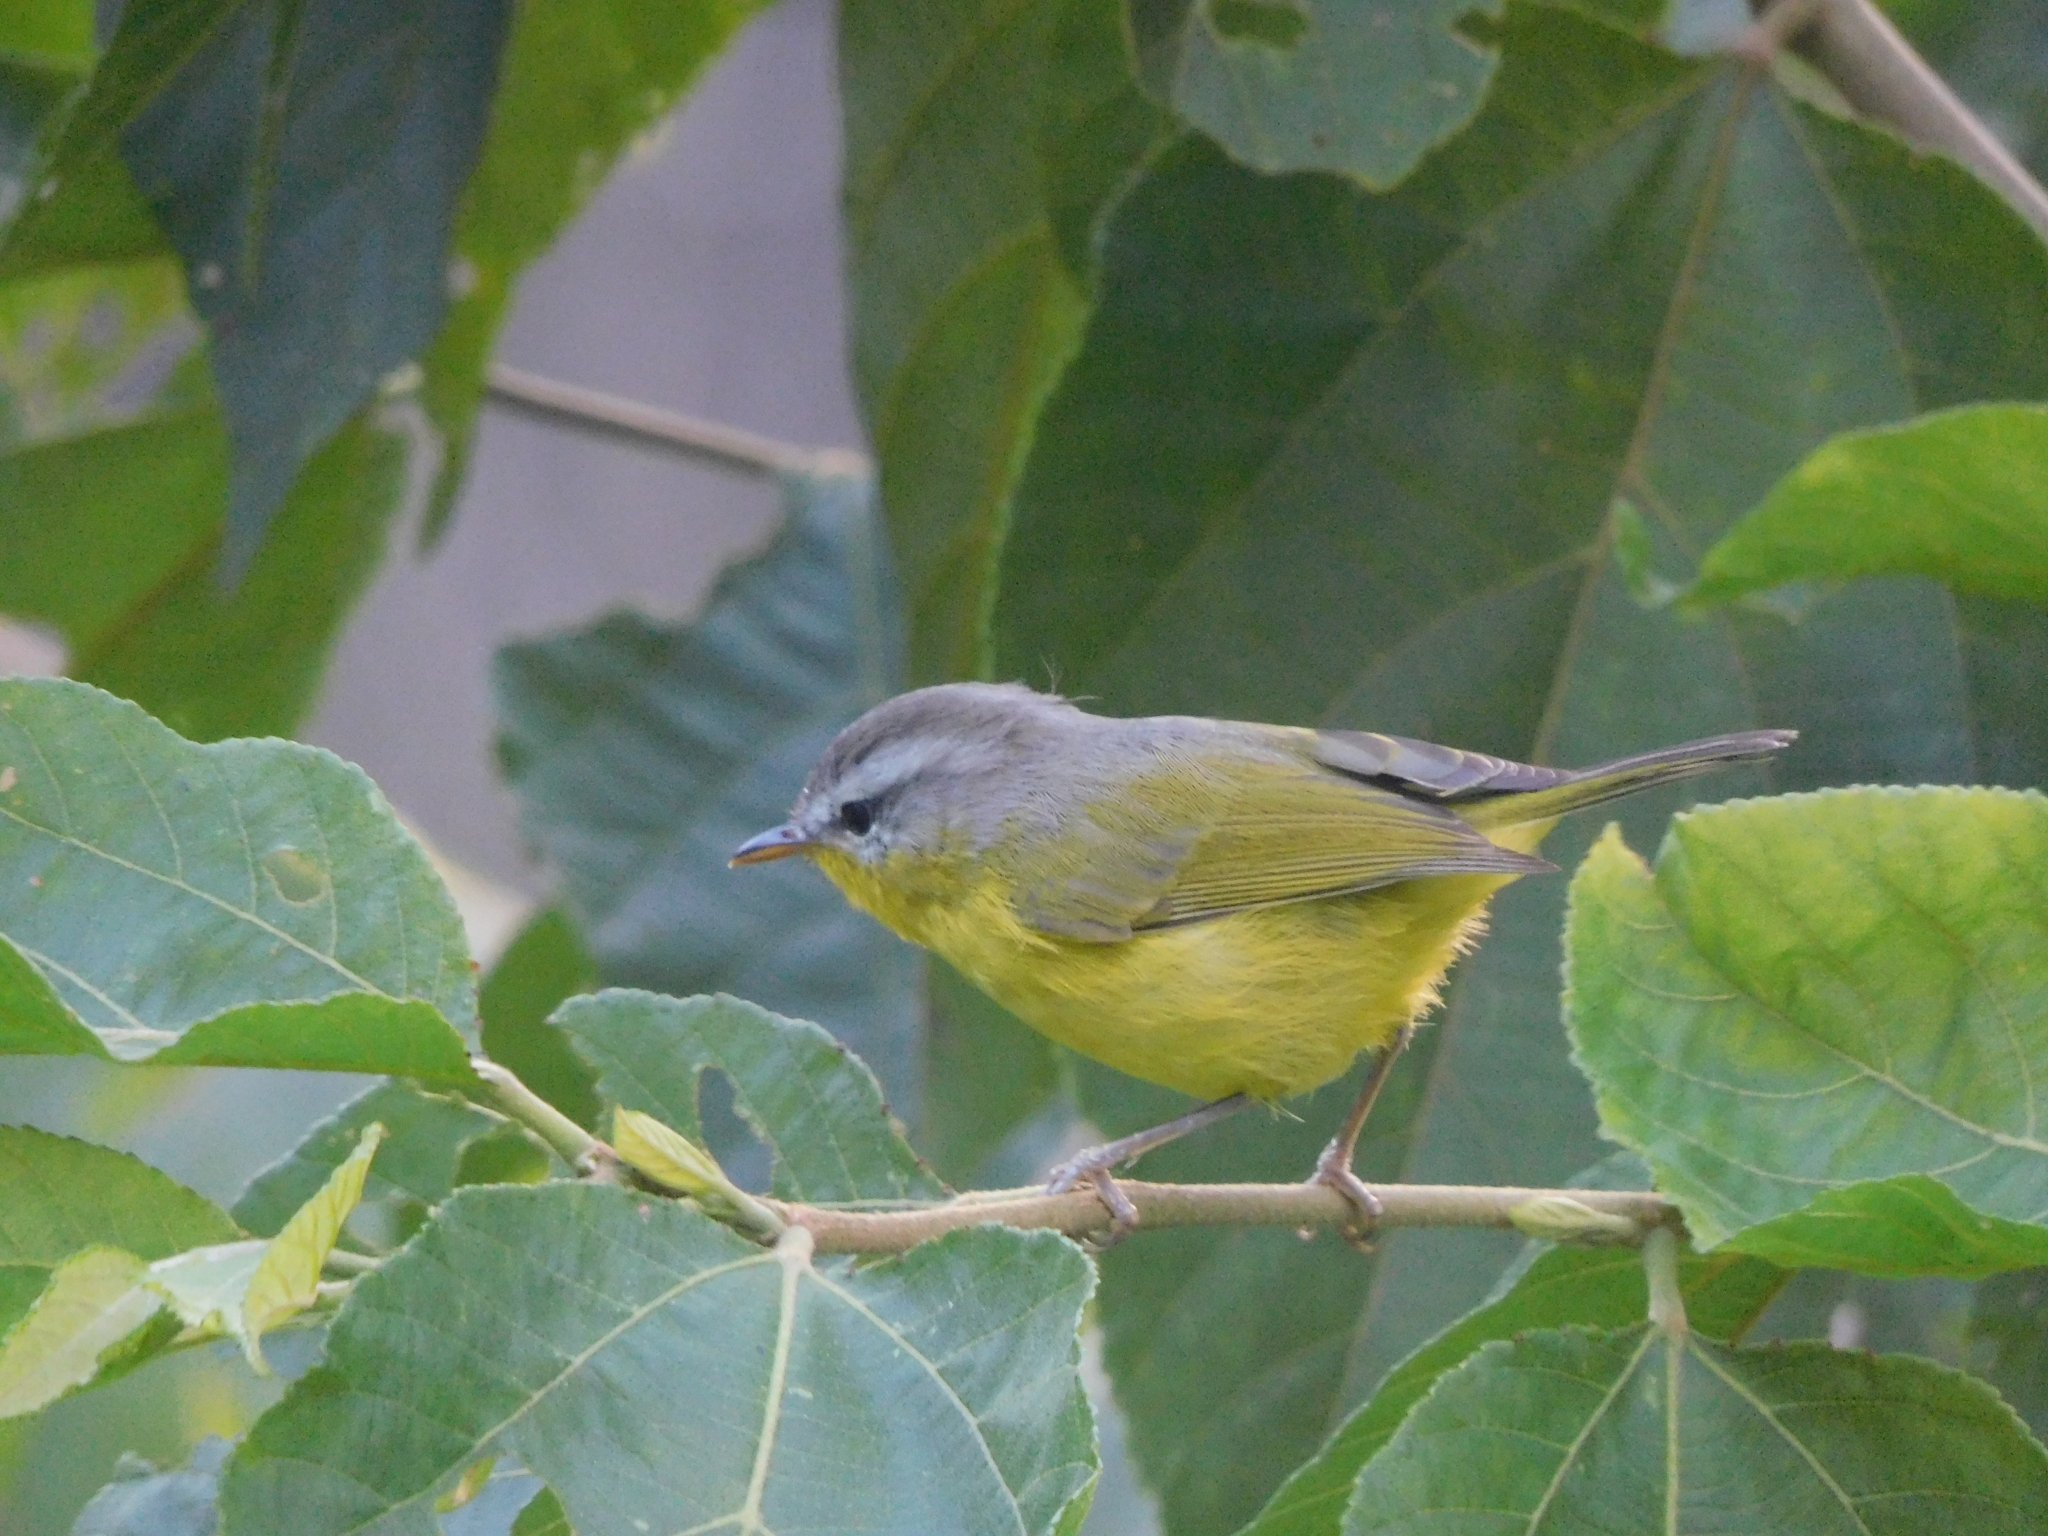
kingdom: Animalia
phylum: Chordata
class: Aves
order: Passeriformes
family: Phylloscopidae
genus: Phylloscopus
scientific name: Phylloscopus xanthoschistos
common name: Grey-hooded warbler
